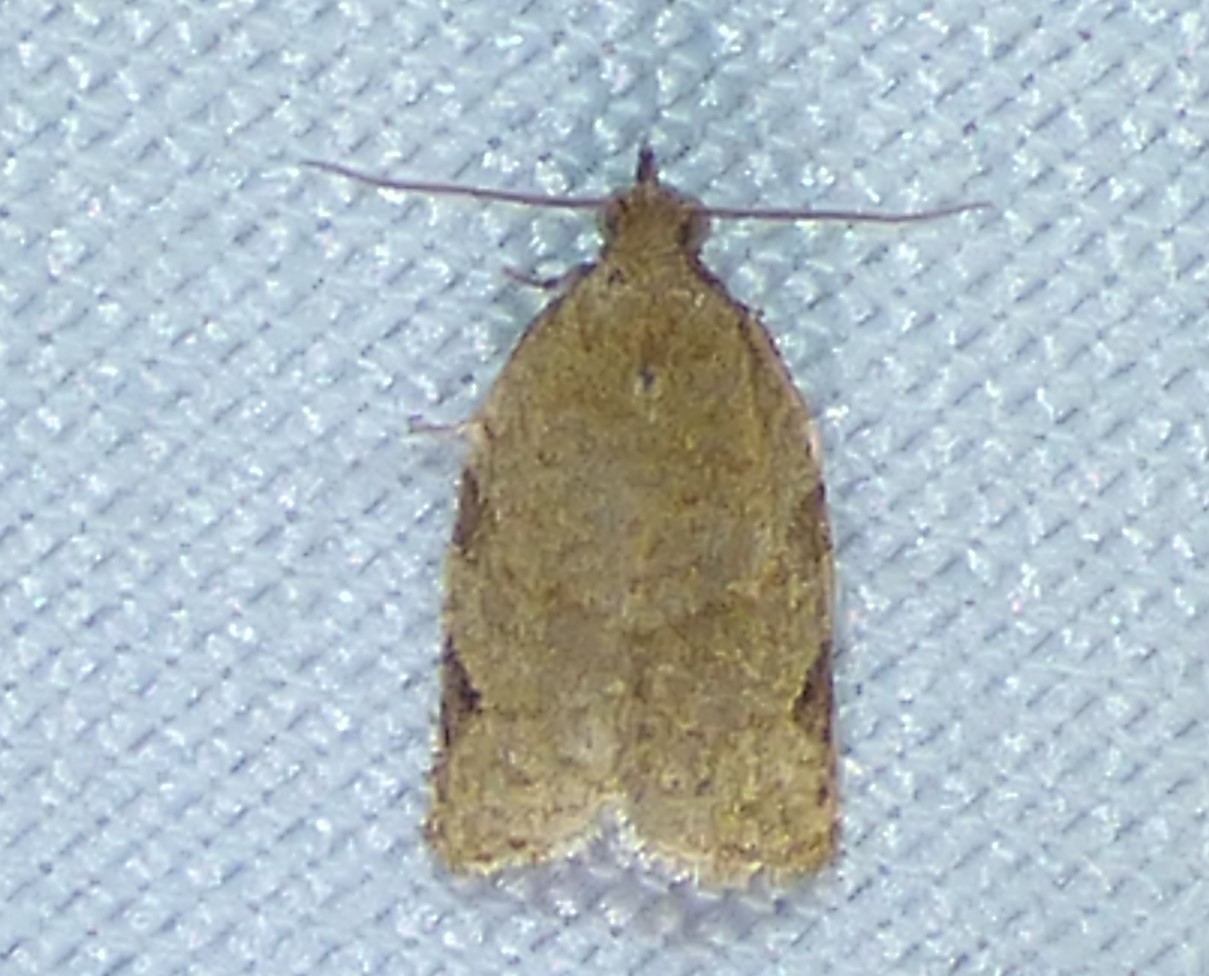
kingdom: Animalia
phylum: Arthropoda
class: Insecta
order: Lepidoptera
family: Tortricidae
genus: Clepsis
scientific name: Clepsis virescana
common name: Greenish apple moth
